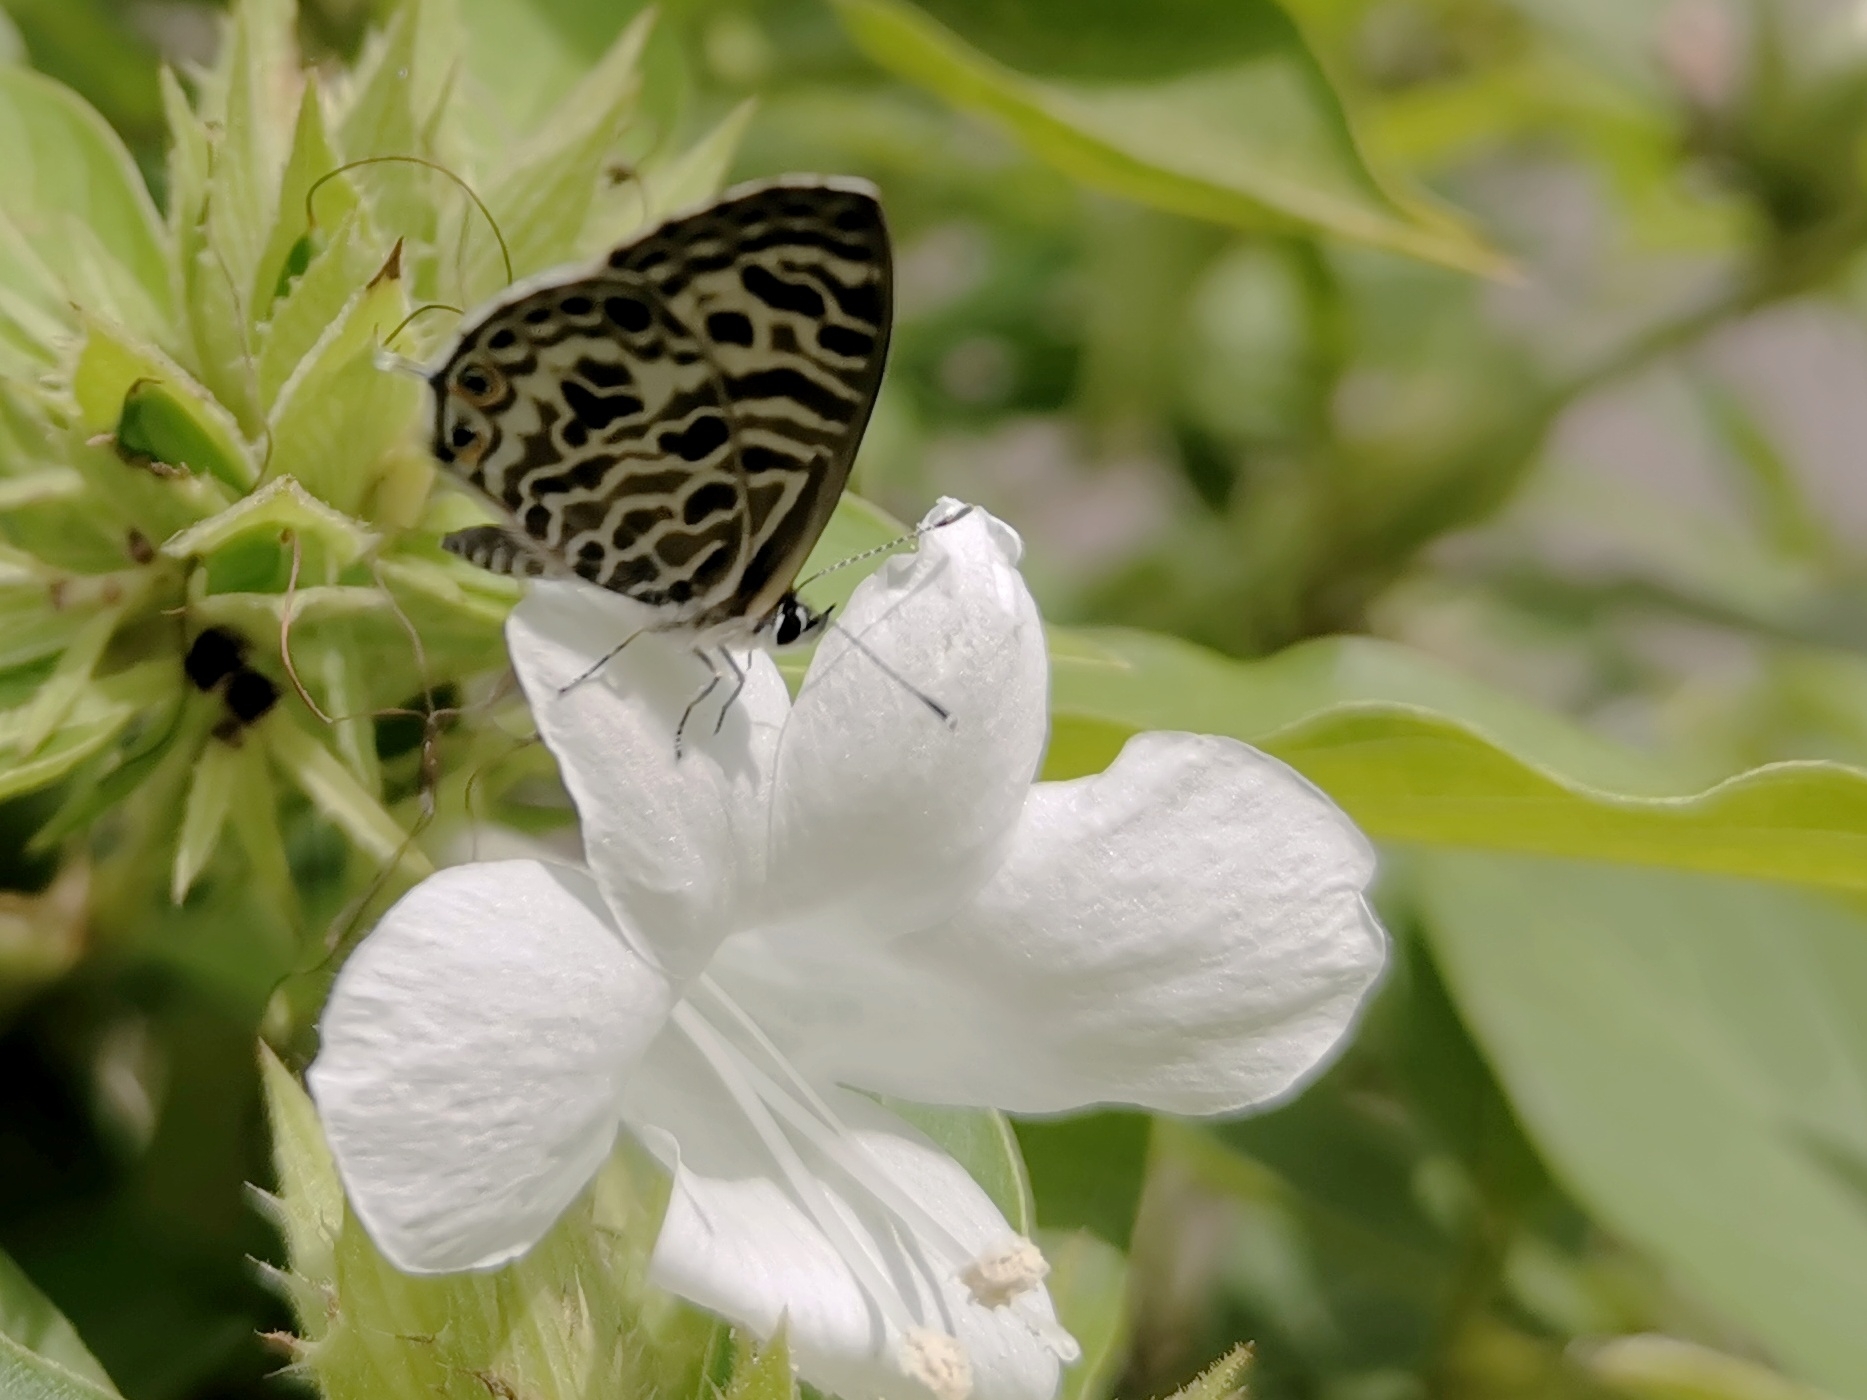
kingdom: Animalia
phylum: Arthropoda
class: Insecta
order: Lepidoptera
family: Lycaenidae
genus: Leptotes
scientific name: Leptotes plinius
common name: Zebra blue
